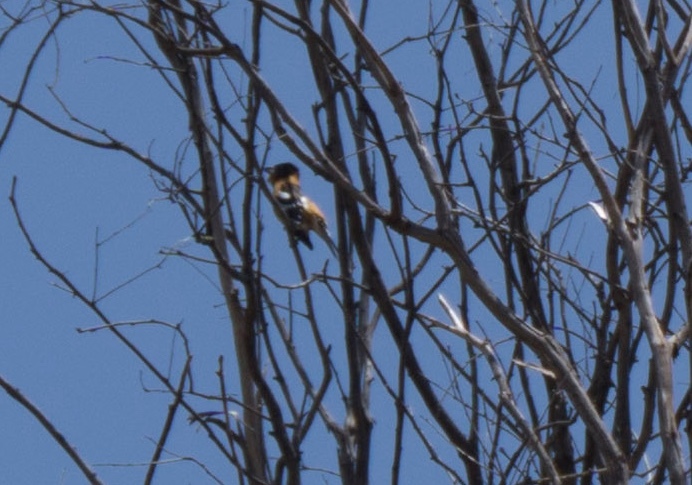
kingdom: Animalia
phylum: Chordata
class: Aves
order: Passeriformes
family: Cardinalidae
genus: Pheucticus
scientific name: Pheucticus melanocephalus
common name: Black-headed grosbeak
